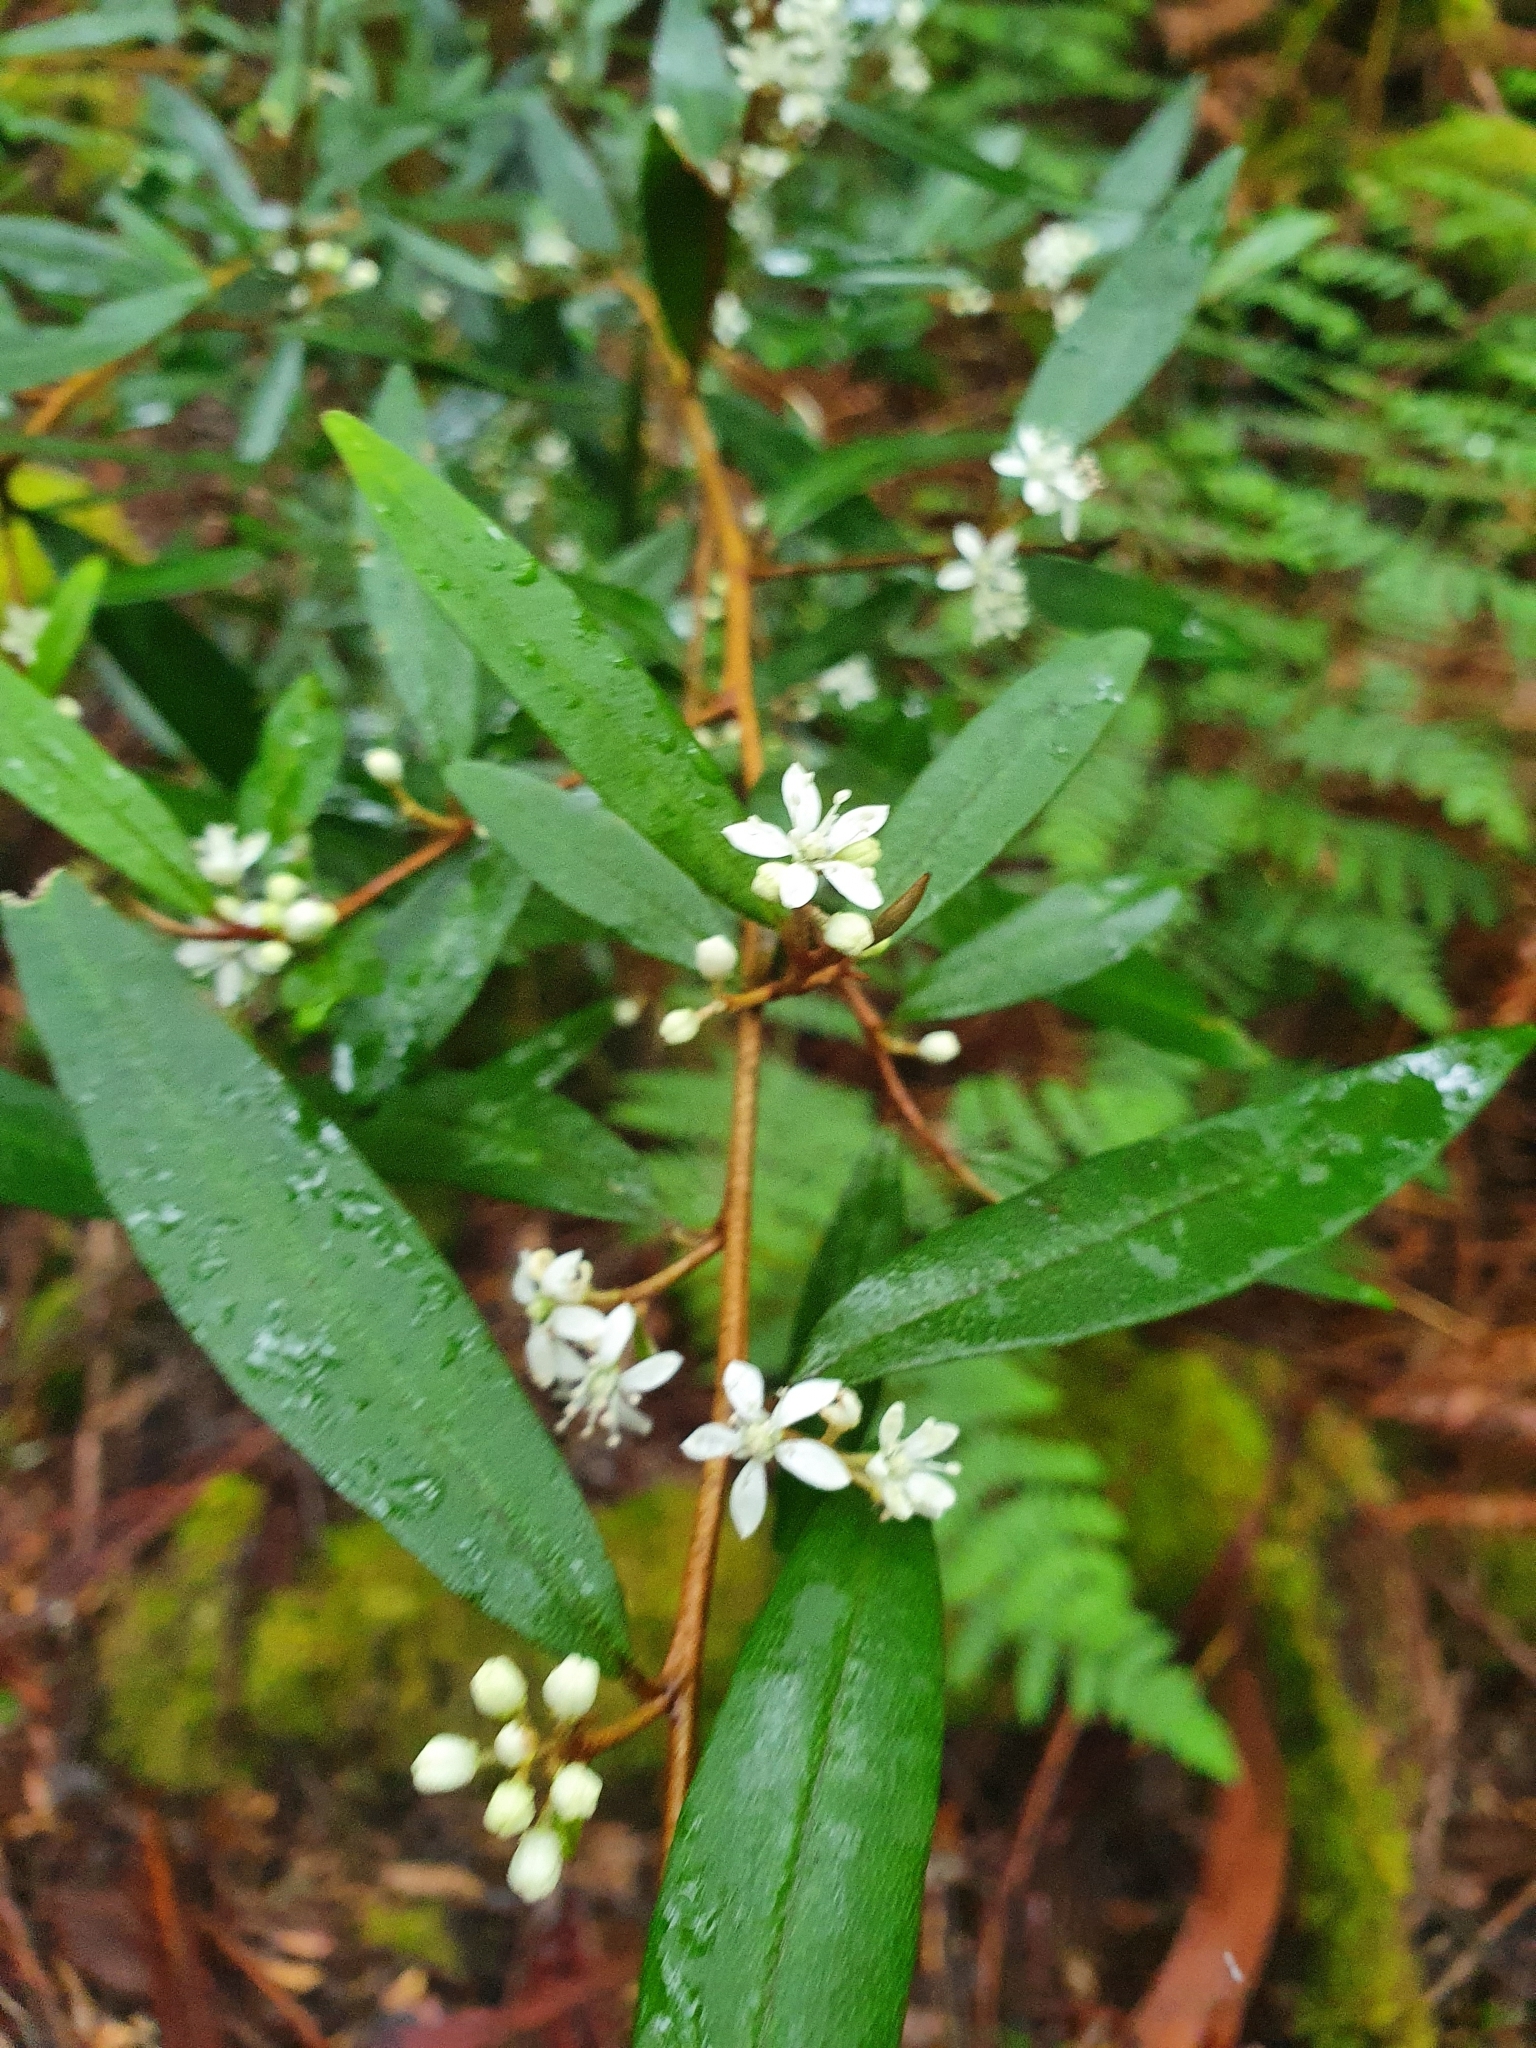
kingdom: Plantae
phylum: Tracheophyta
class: Magnoliopsida
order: Sapindales
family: Rutaceae
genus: Nematolepis
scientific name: Nematolepis squamea
